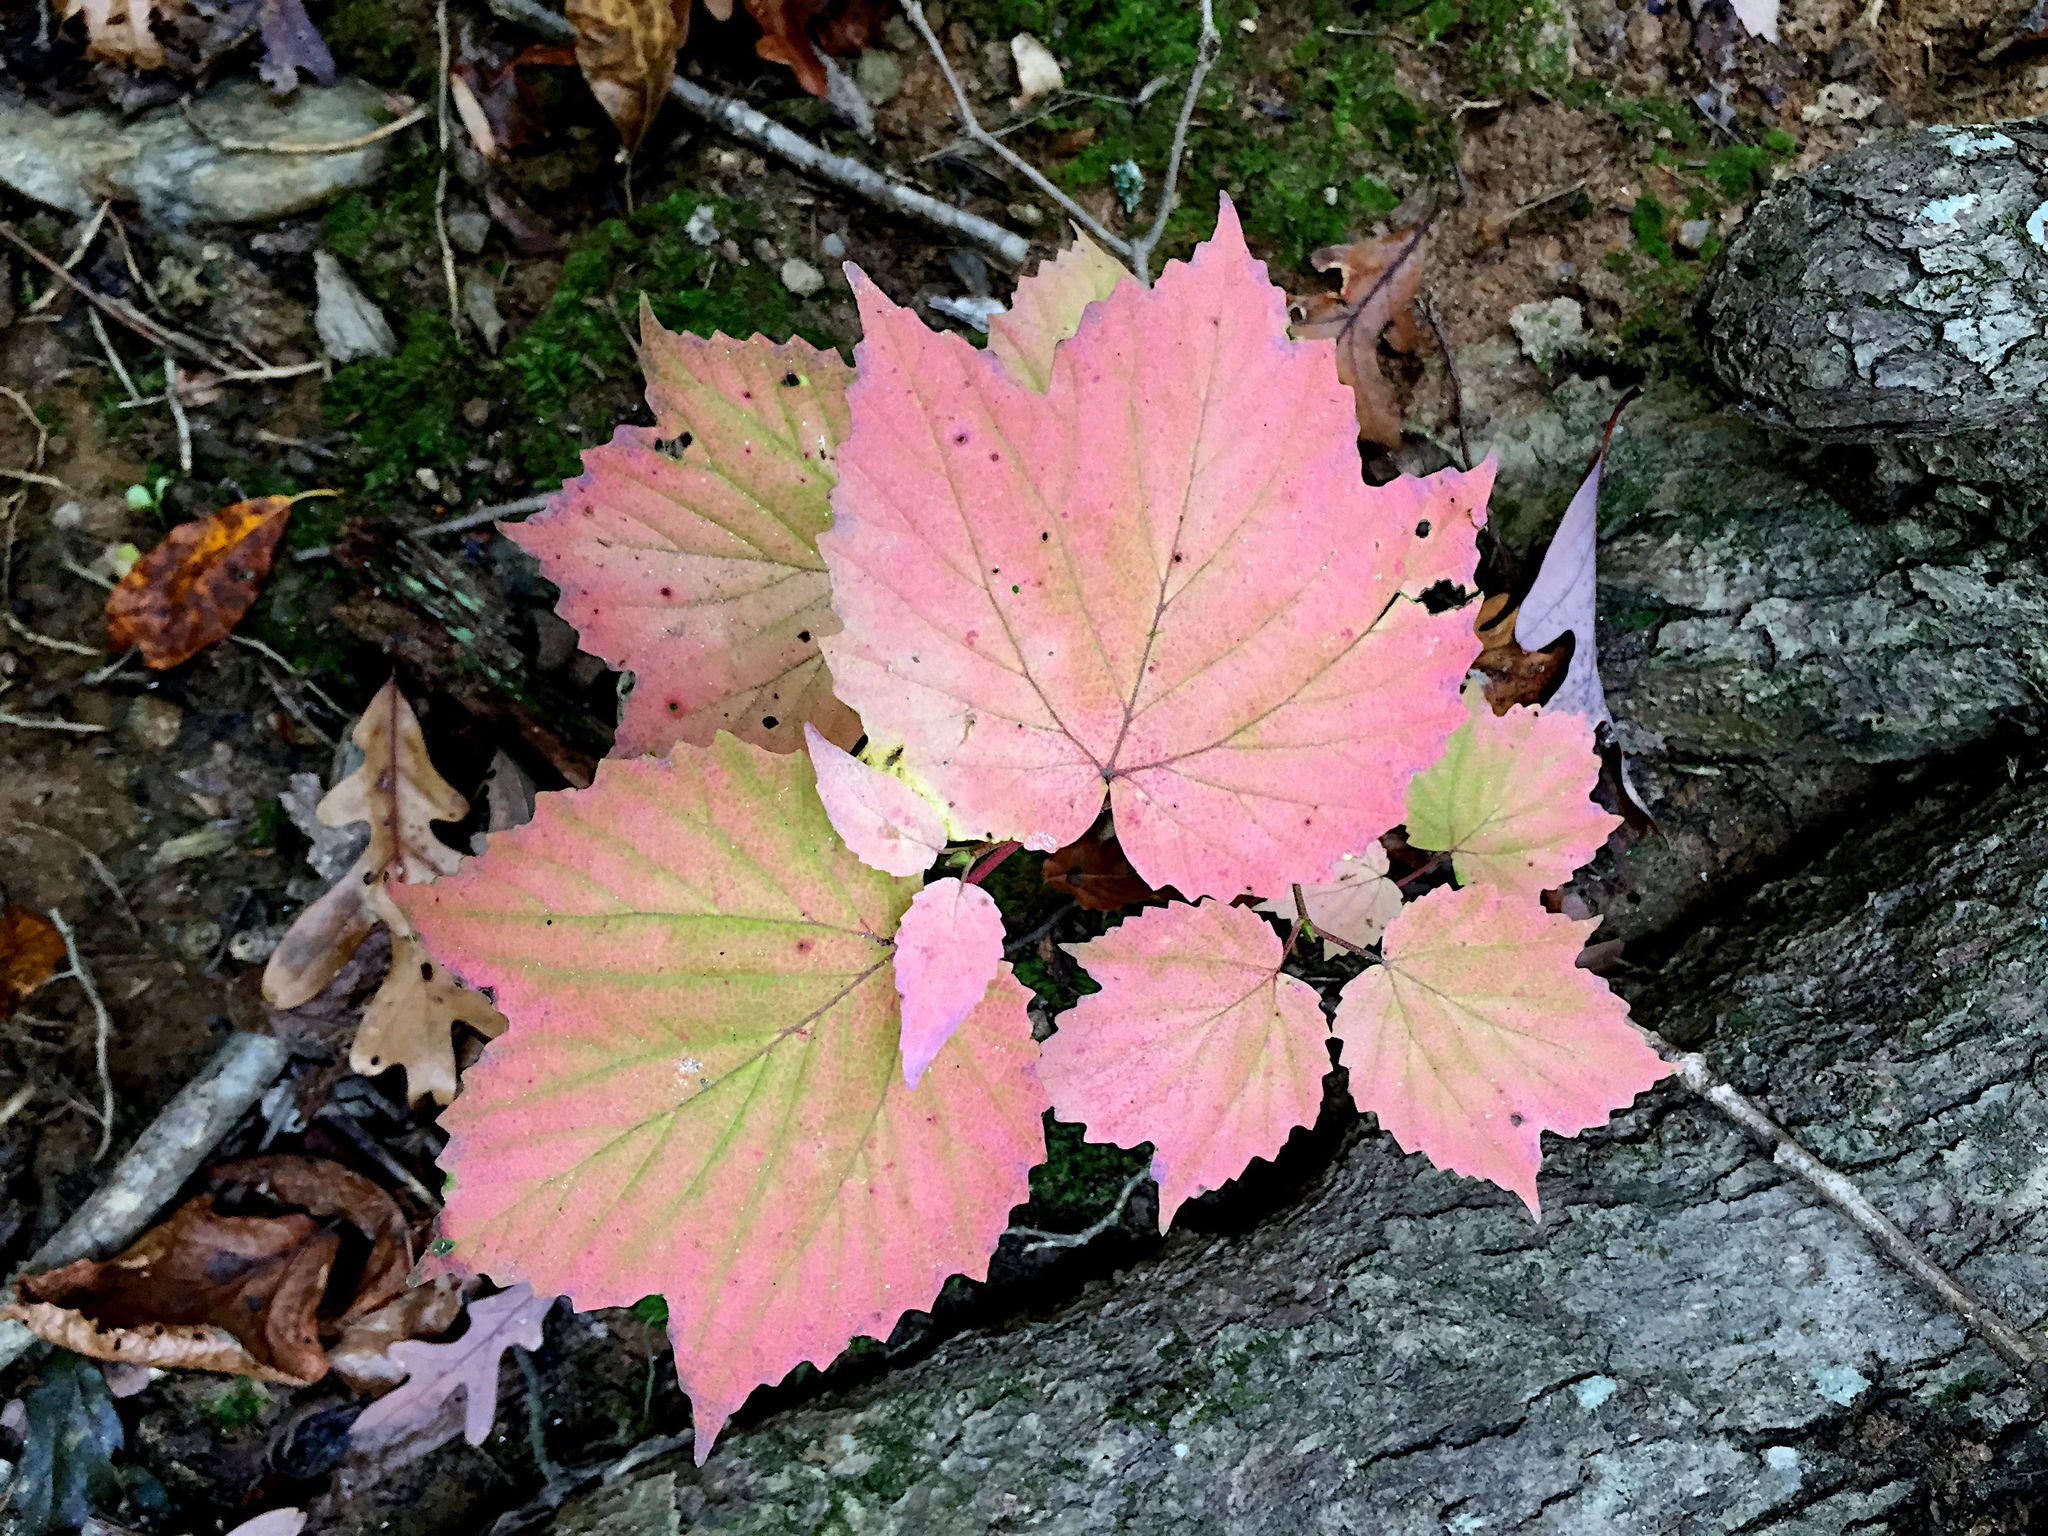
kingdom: Plantae
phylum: Tracheophyta
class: Magnoliopsida
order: Dipsacales
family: Viburnaceae
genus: Viburnum
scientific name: Viburnum acerifolium
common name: Dockmackie
